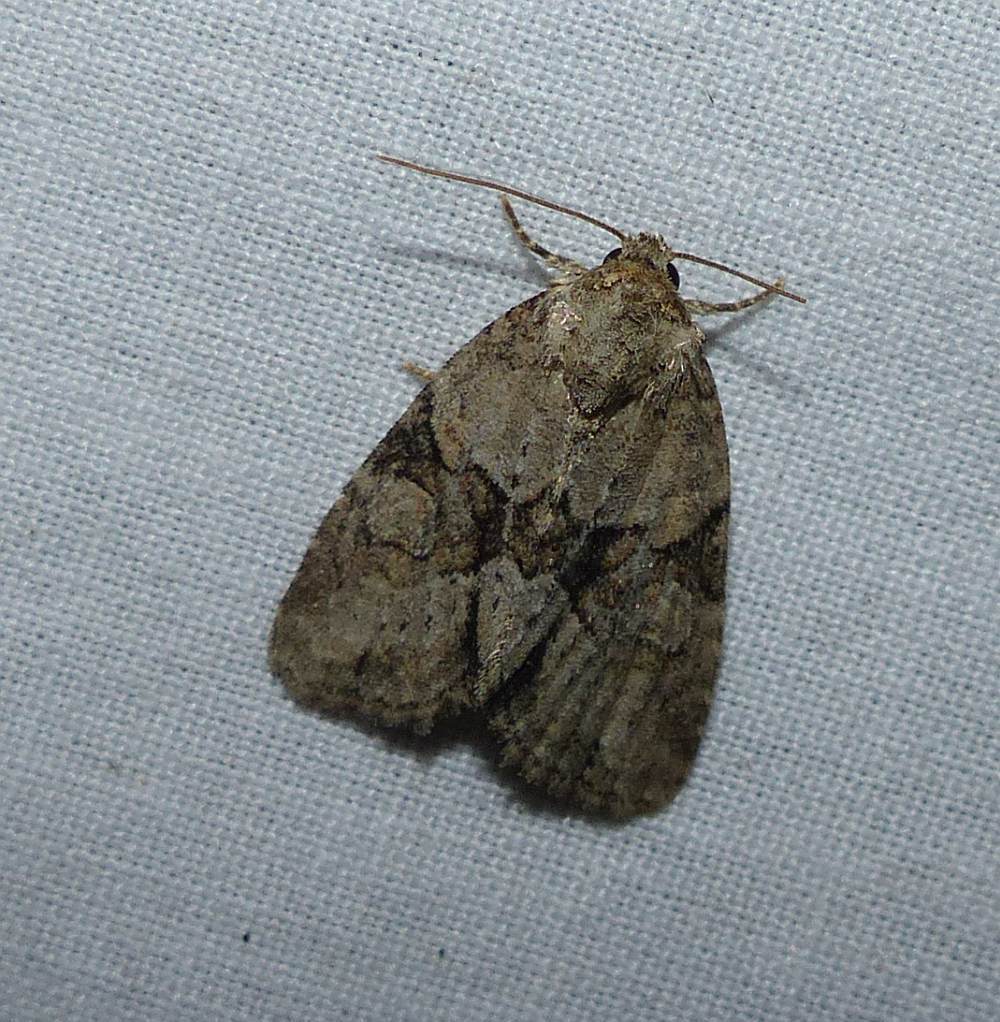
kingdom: Animalia
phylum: Arthropoda
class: Insecta
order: Lepidoptera
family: Noctuidae
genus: Neoligia
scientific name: Neoligia exhausta
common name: Exhausted brocade
